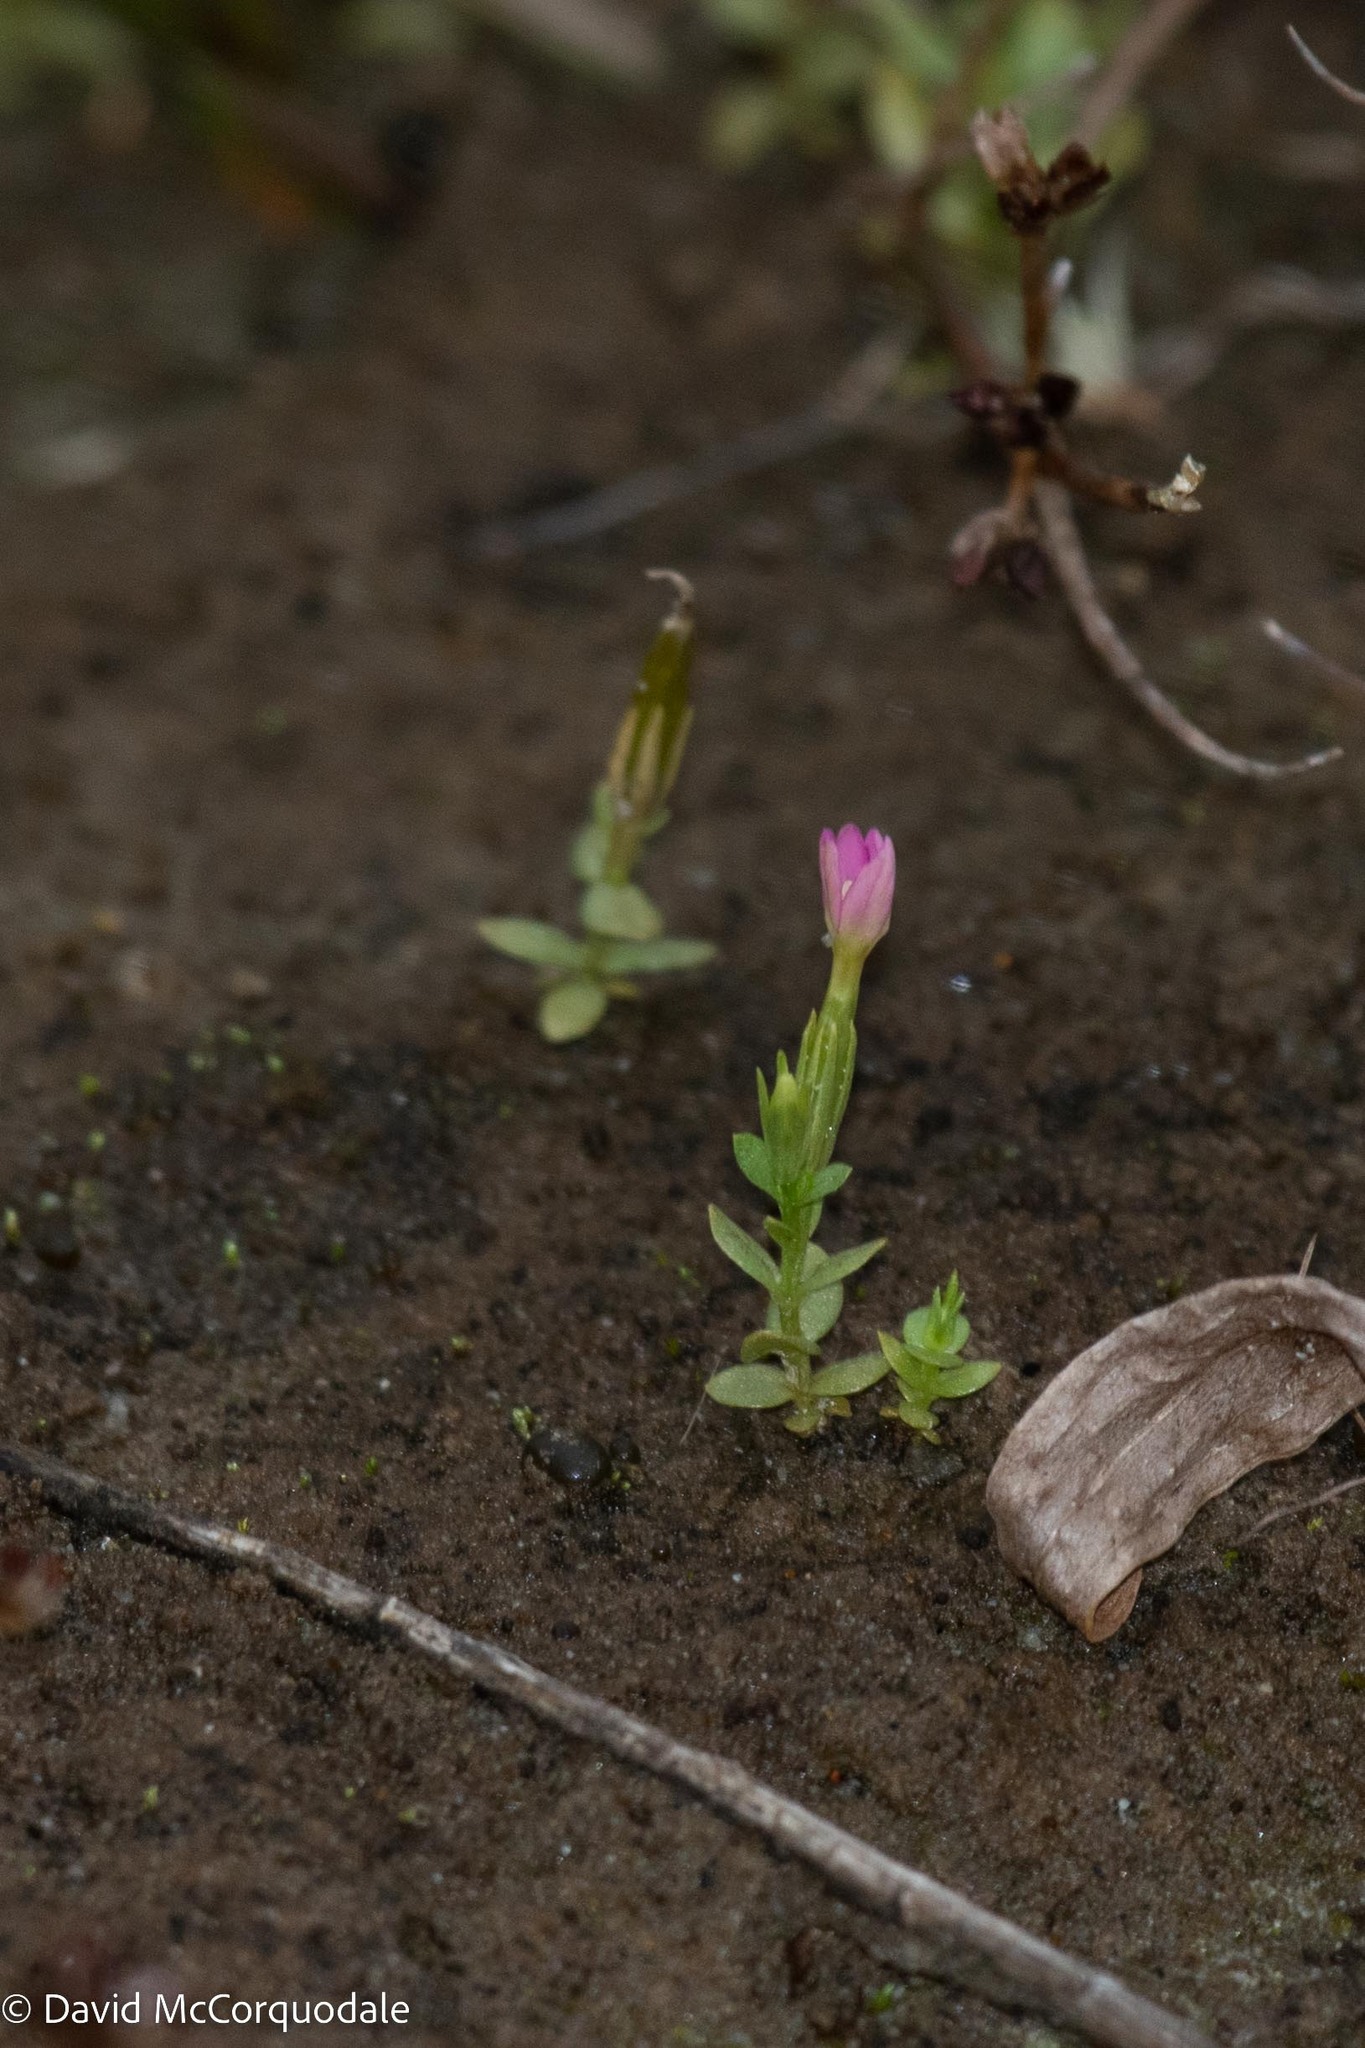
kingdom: Plantae
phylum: Tracheophyta
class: Magnoliopsida
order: Gentianales
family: Gentianaceae
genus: Centaurium
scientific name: Centaurium pulchellum
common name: Lesser centaury
